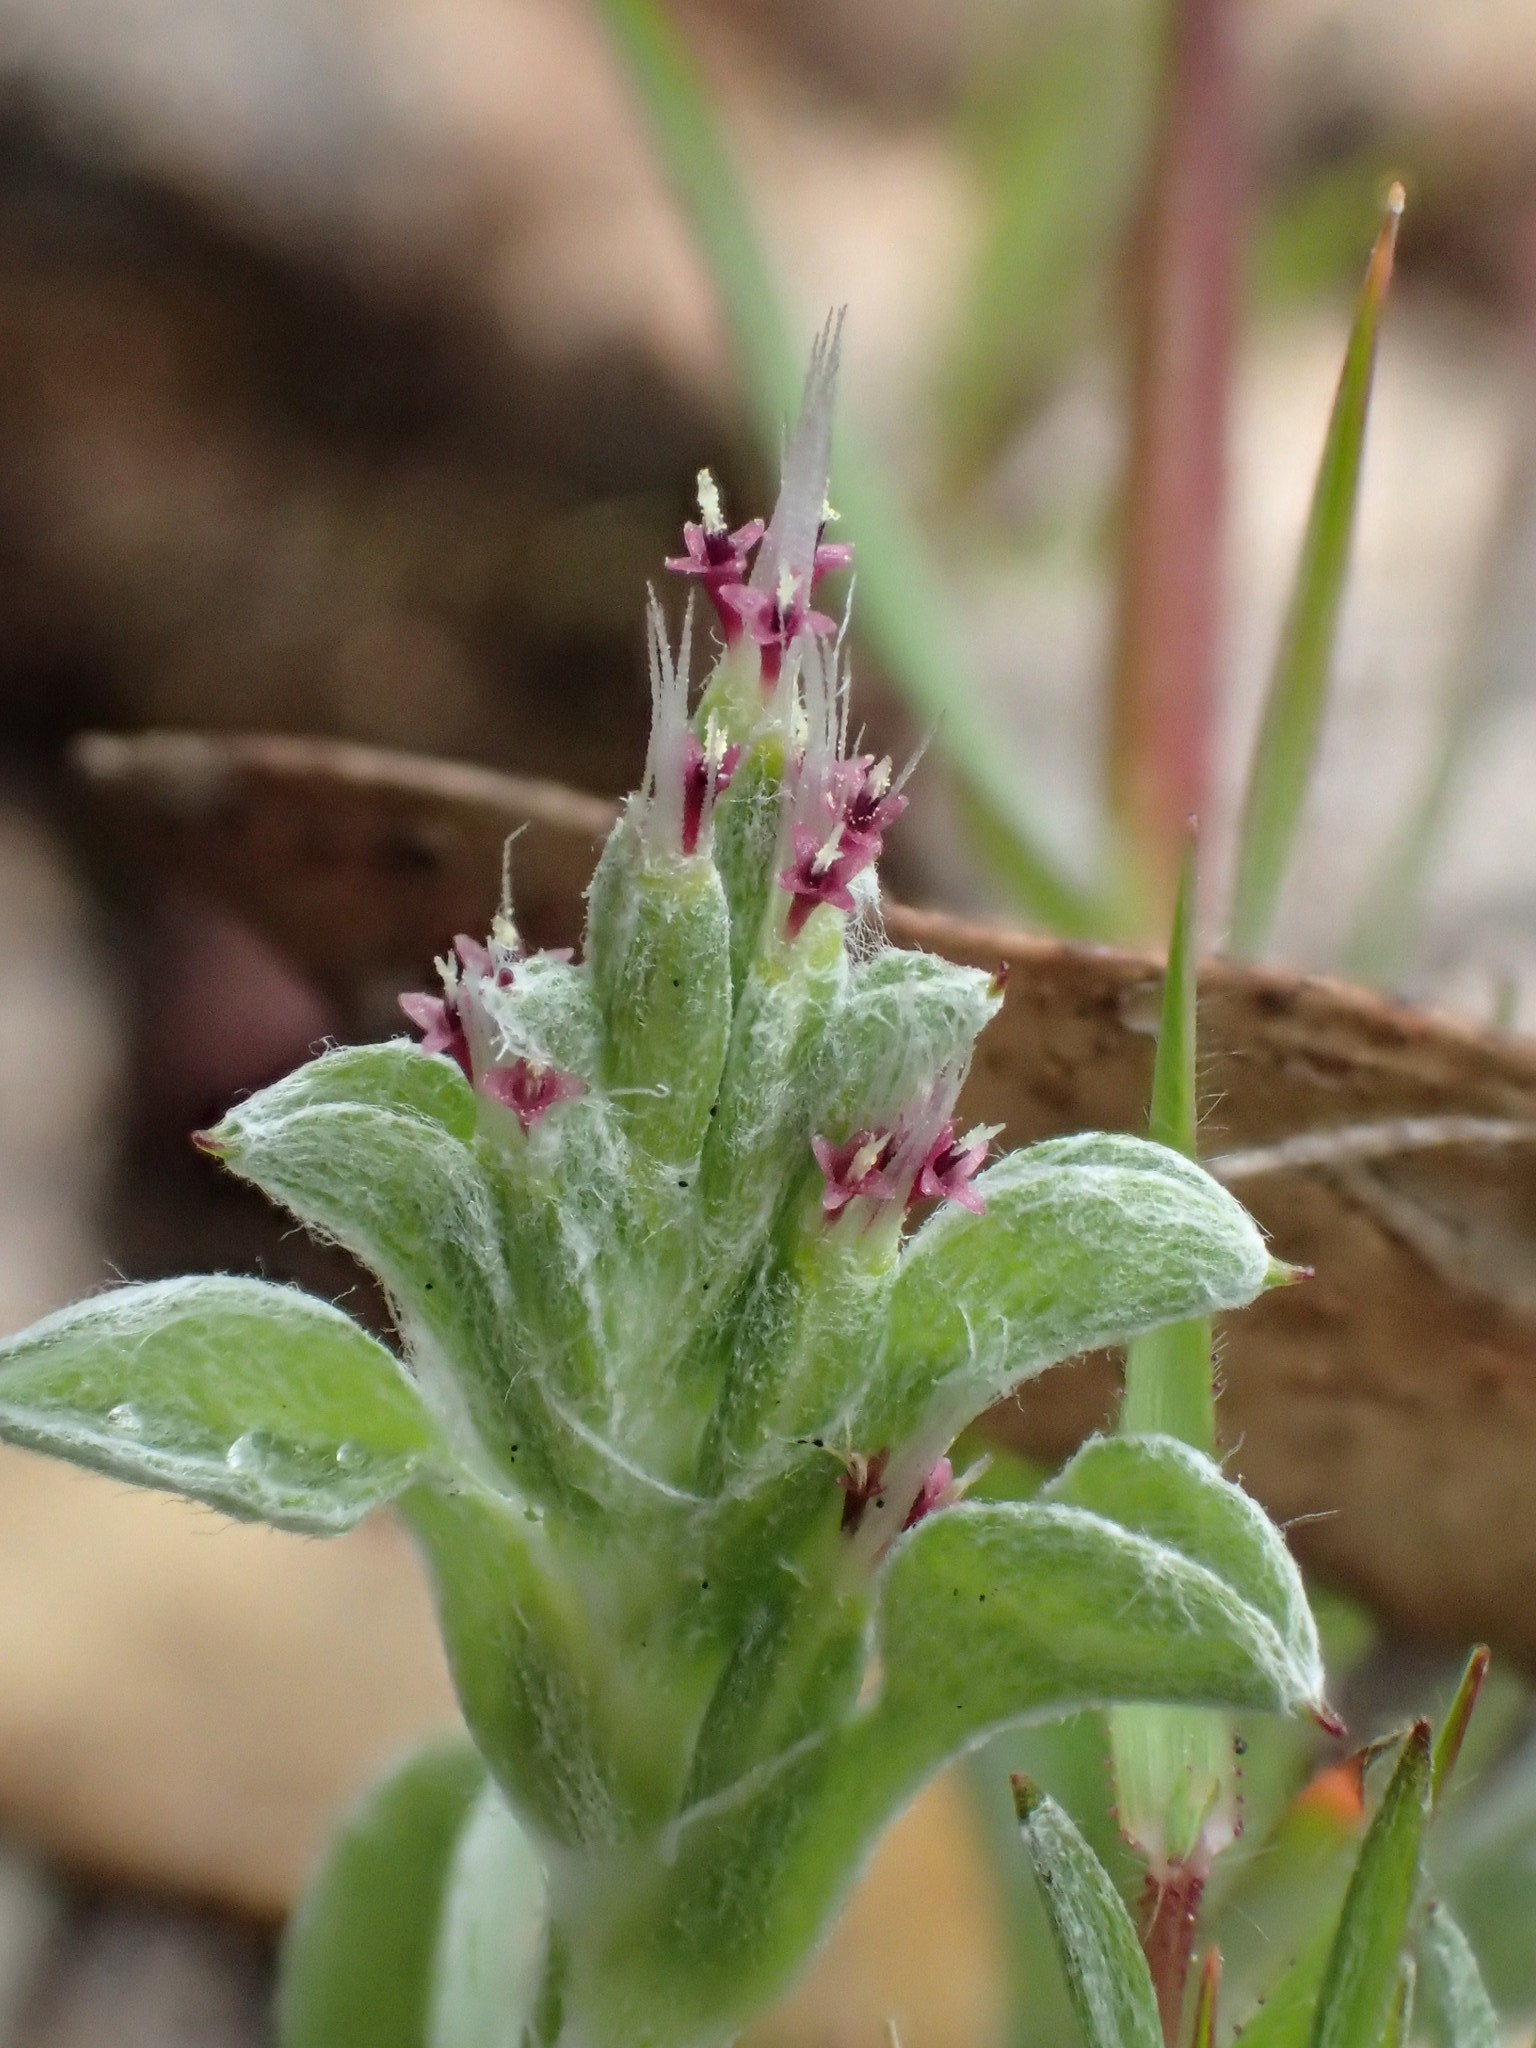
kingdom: Plantae
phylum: Tracheophyta
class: Magnoliopsida
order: Asterales
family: Asteraceae
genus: Quinetia
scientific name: Quinetia urvillei
